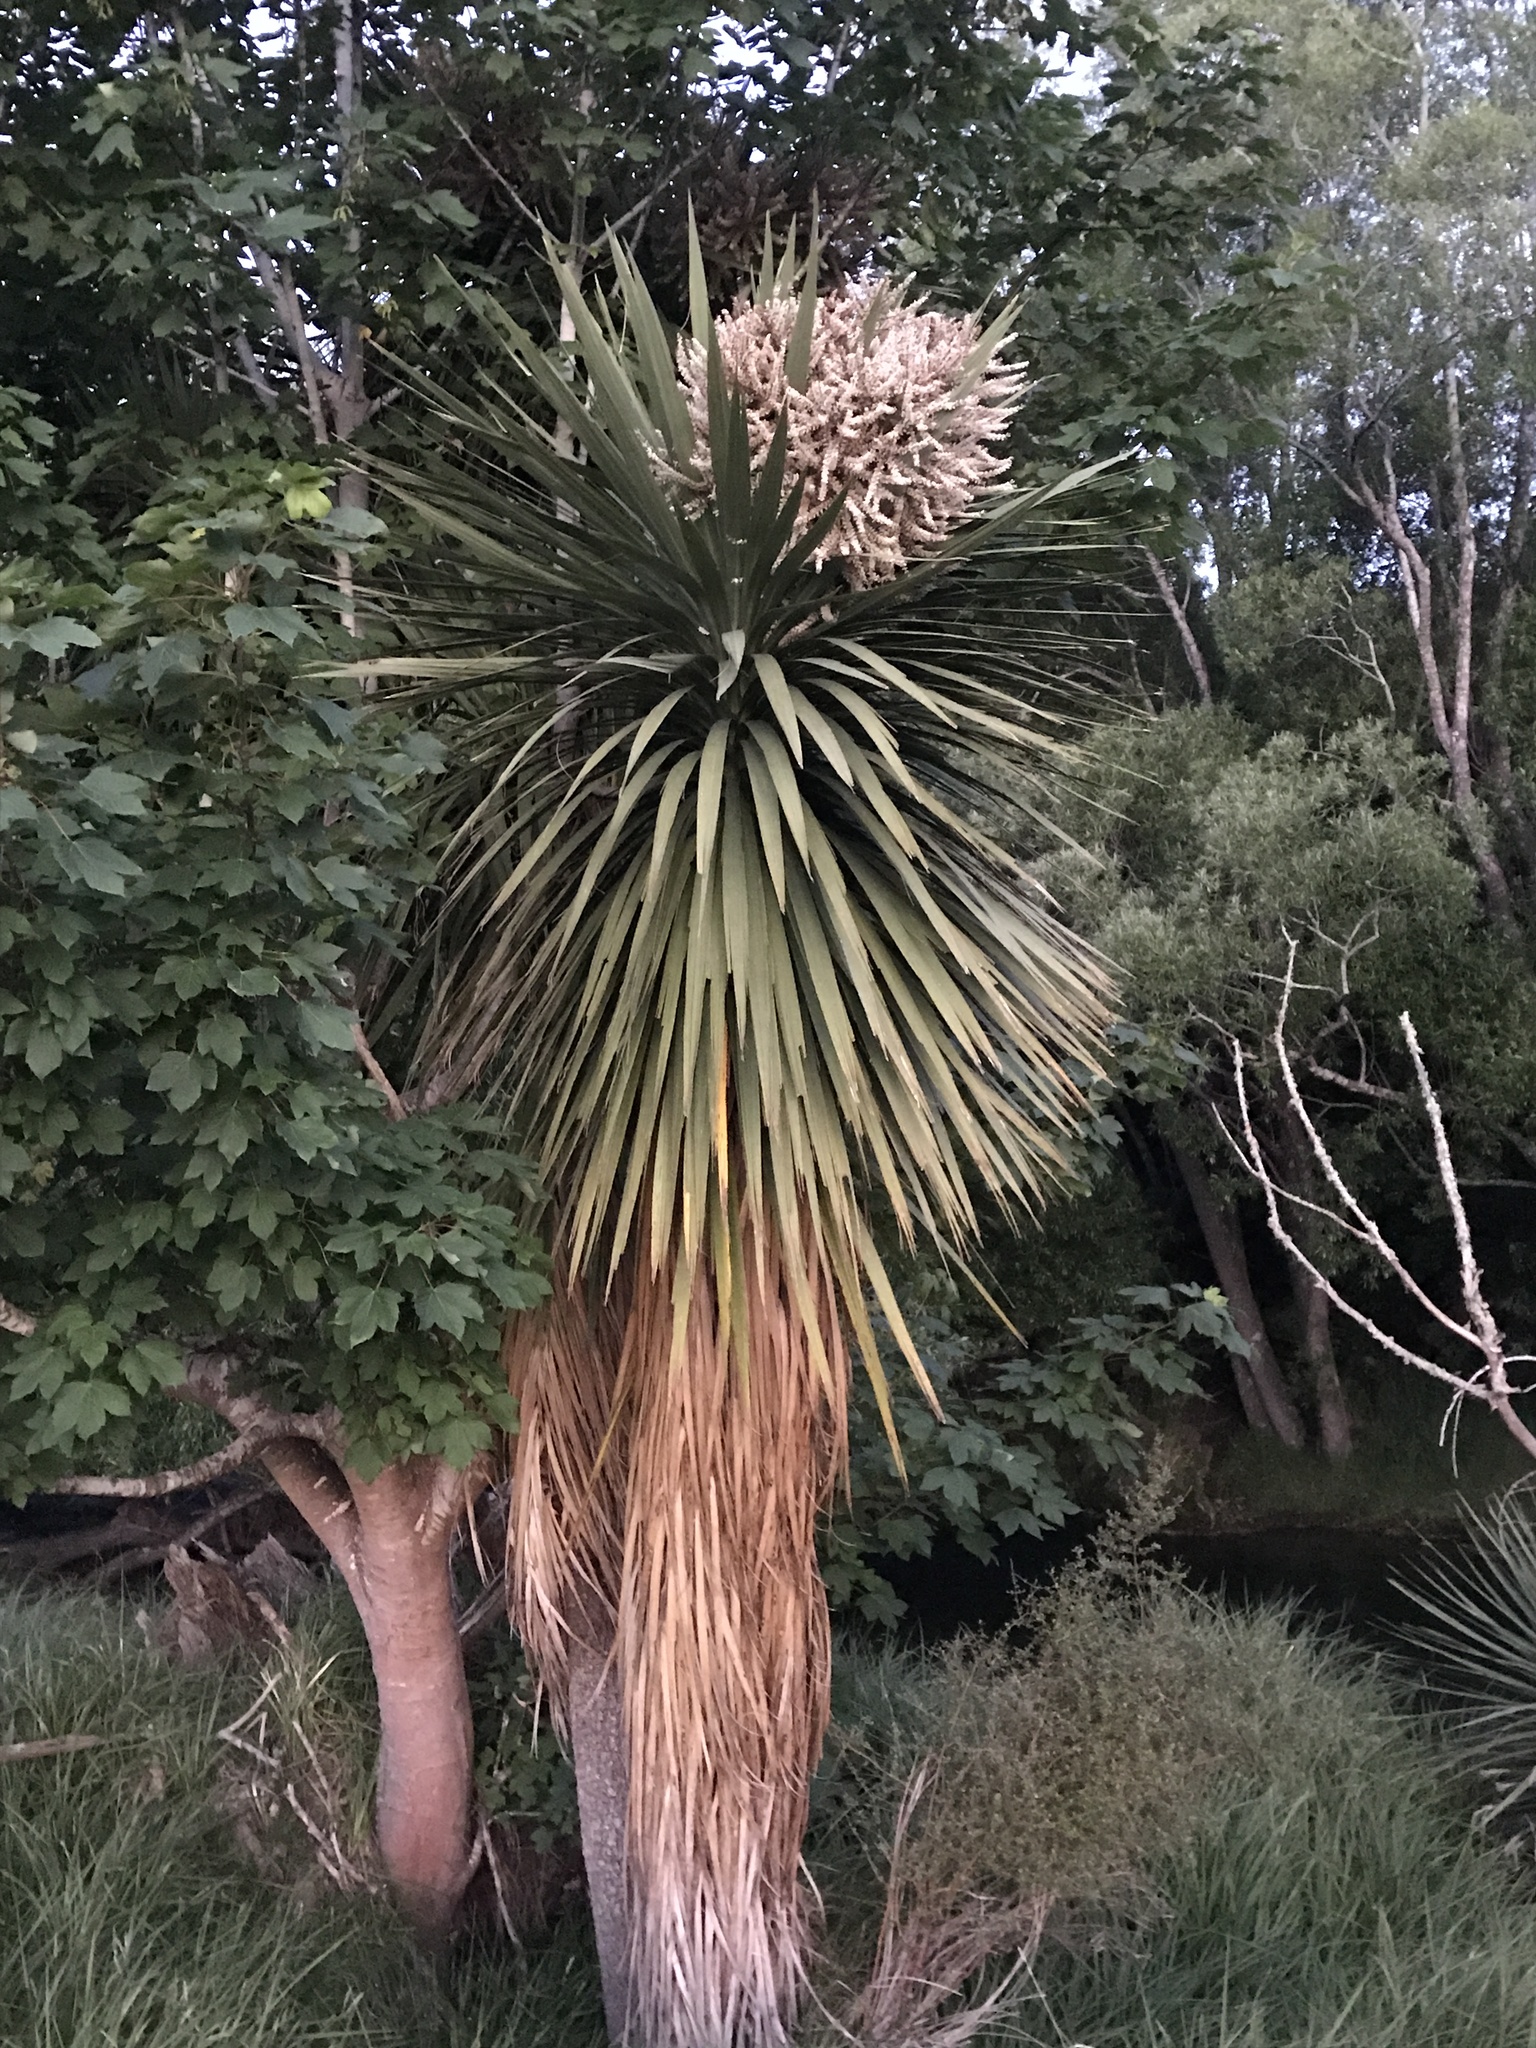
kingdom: Plantae
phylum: Tracheophyta
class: Liliopsida
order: Asparagales
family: Asparagaceae
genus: Cordyline
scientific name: Cordyline australis
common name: Cabbage-palm
